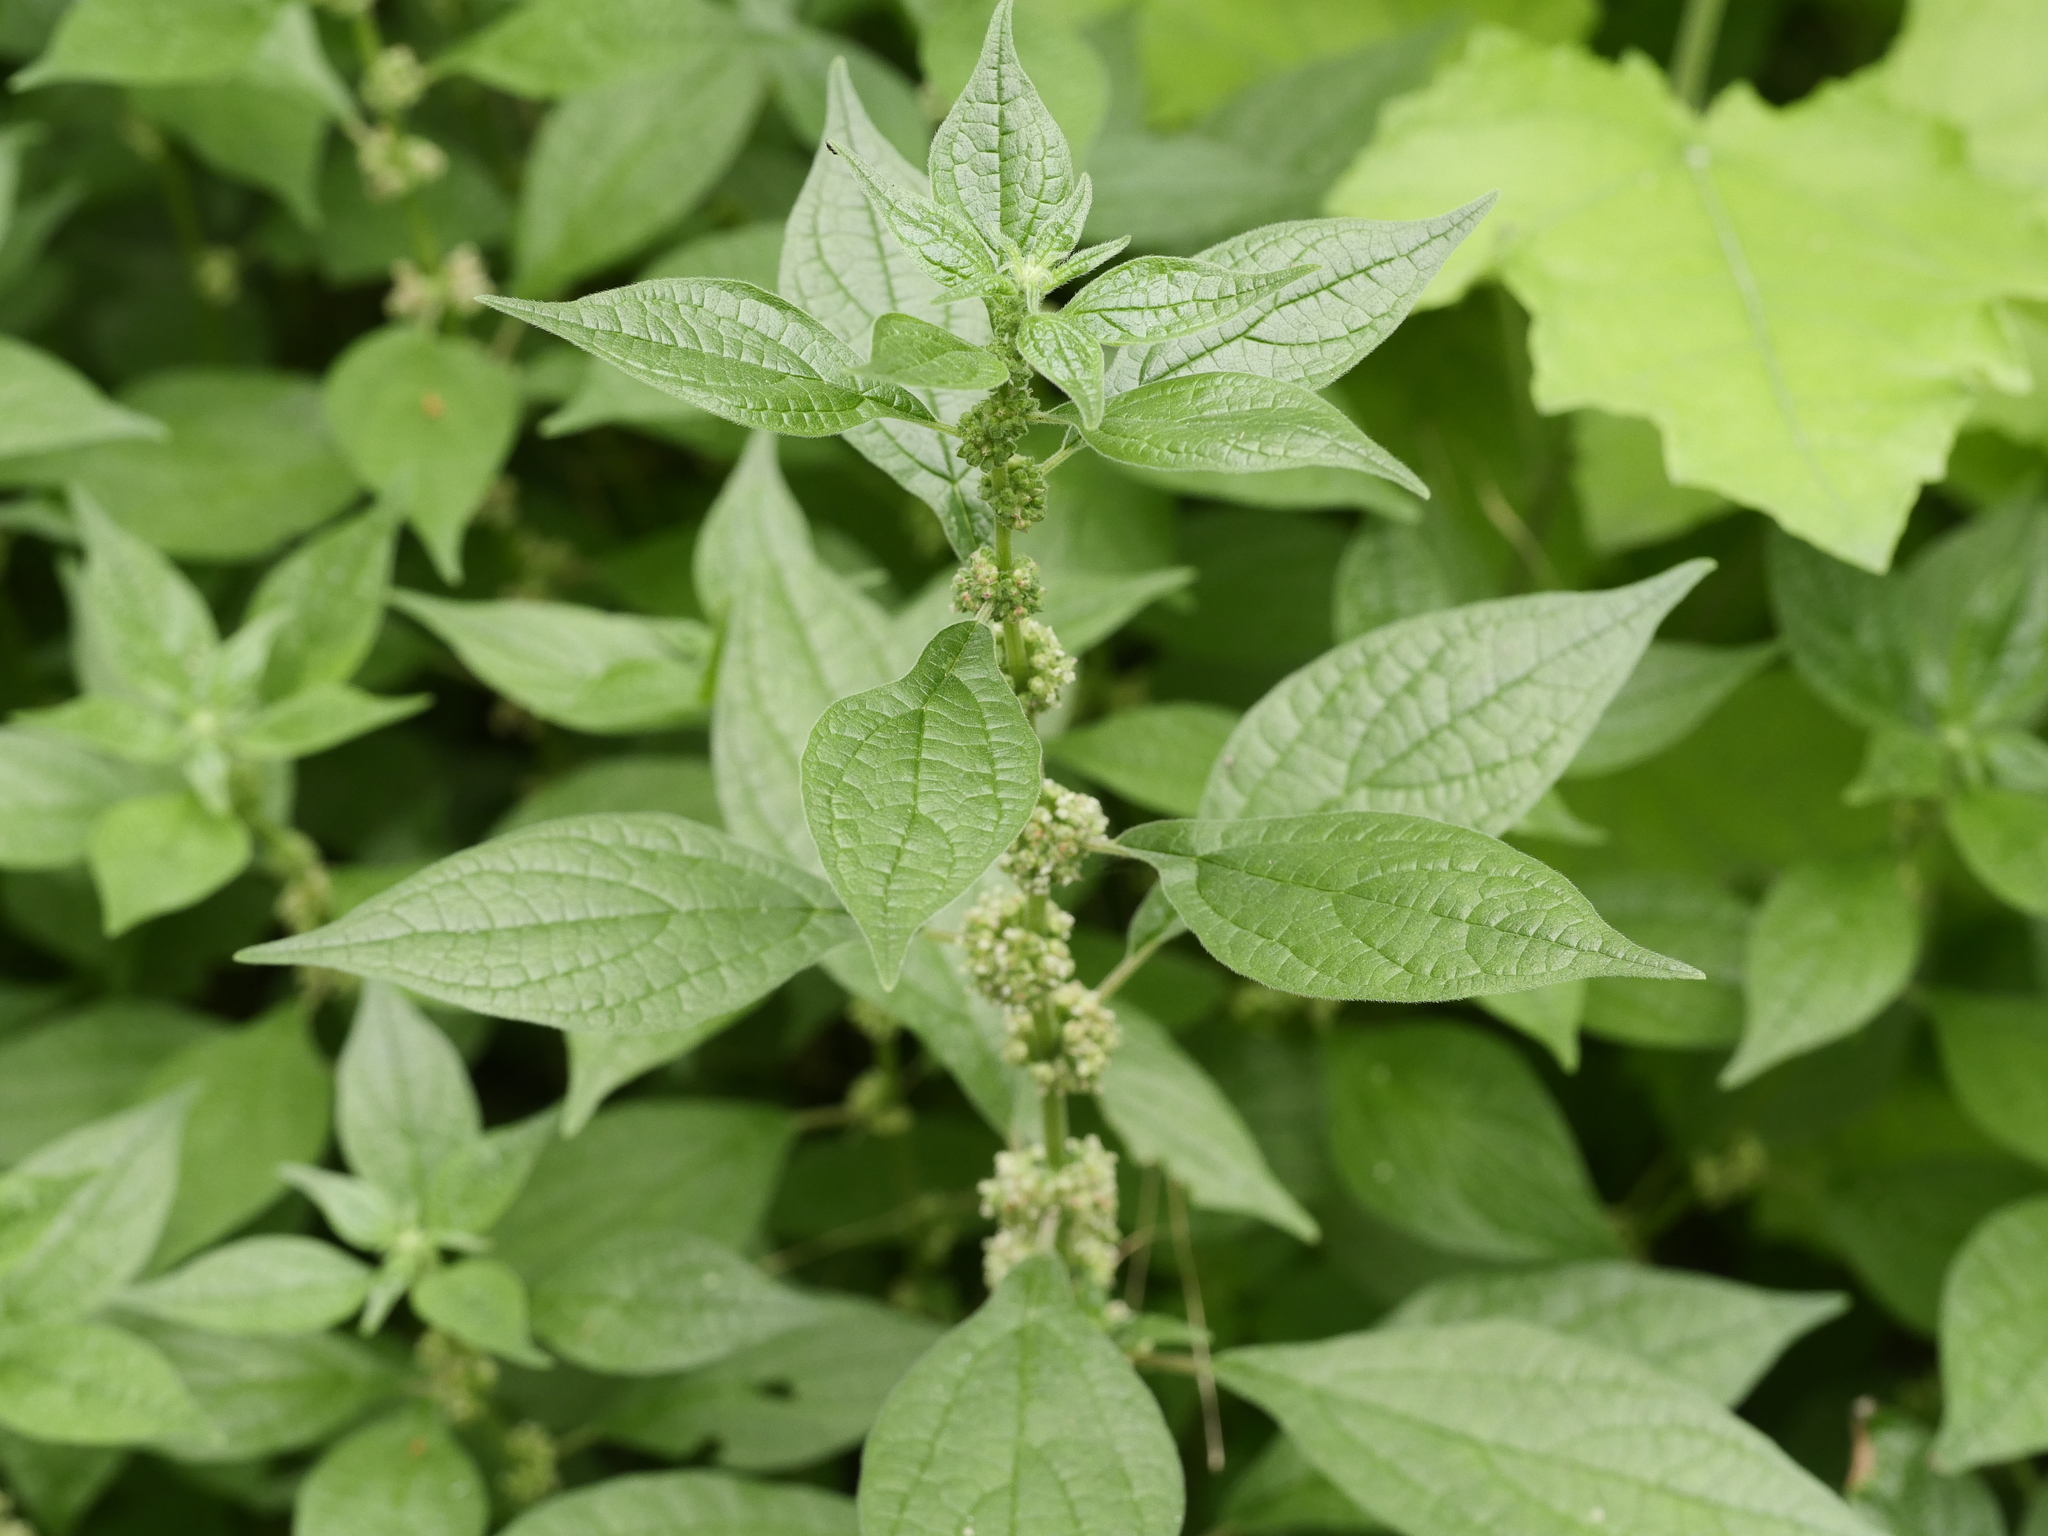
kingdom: Plantae
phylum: Tracheophyta
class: Magnoliopsida
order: Rosales
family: Urticaceae
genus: Parietaria
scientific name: Parietaria officinalis
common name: Eastern pellitory-of-the-wall
